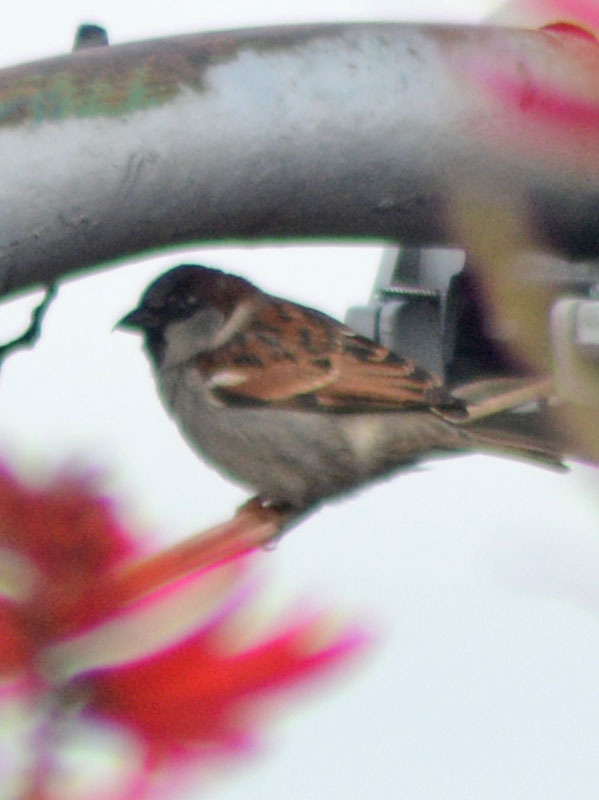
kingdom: Animalia
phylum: Chordata
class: Aves
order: Passeriformes
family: Passeridae
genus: Passer
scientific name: Passer domesticus
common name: House sparrow
